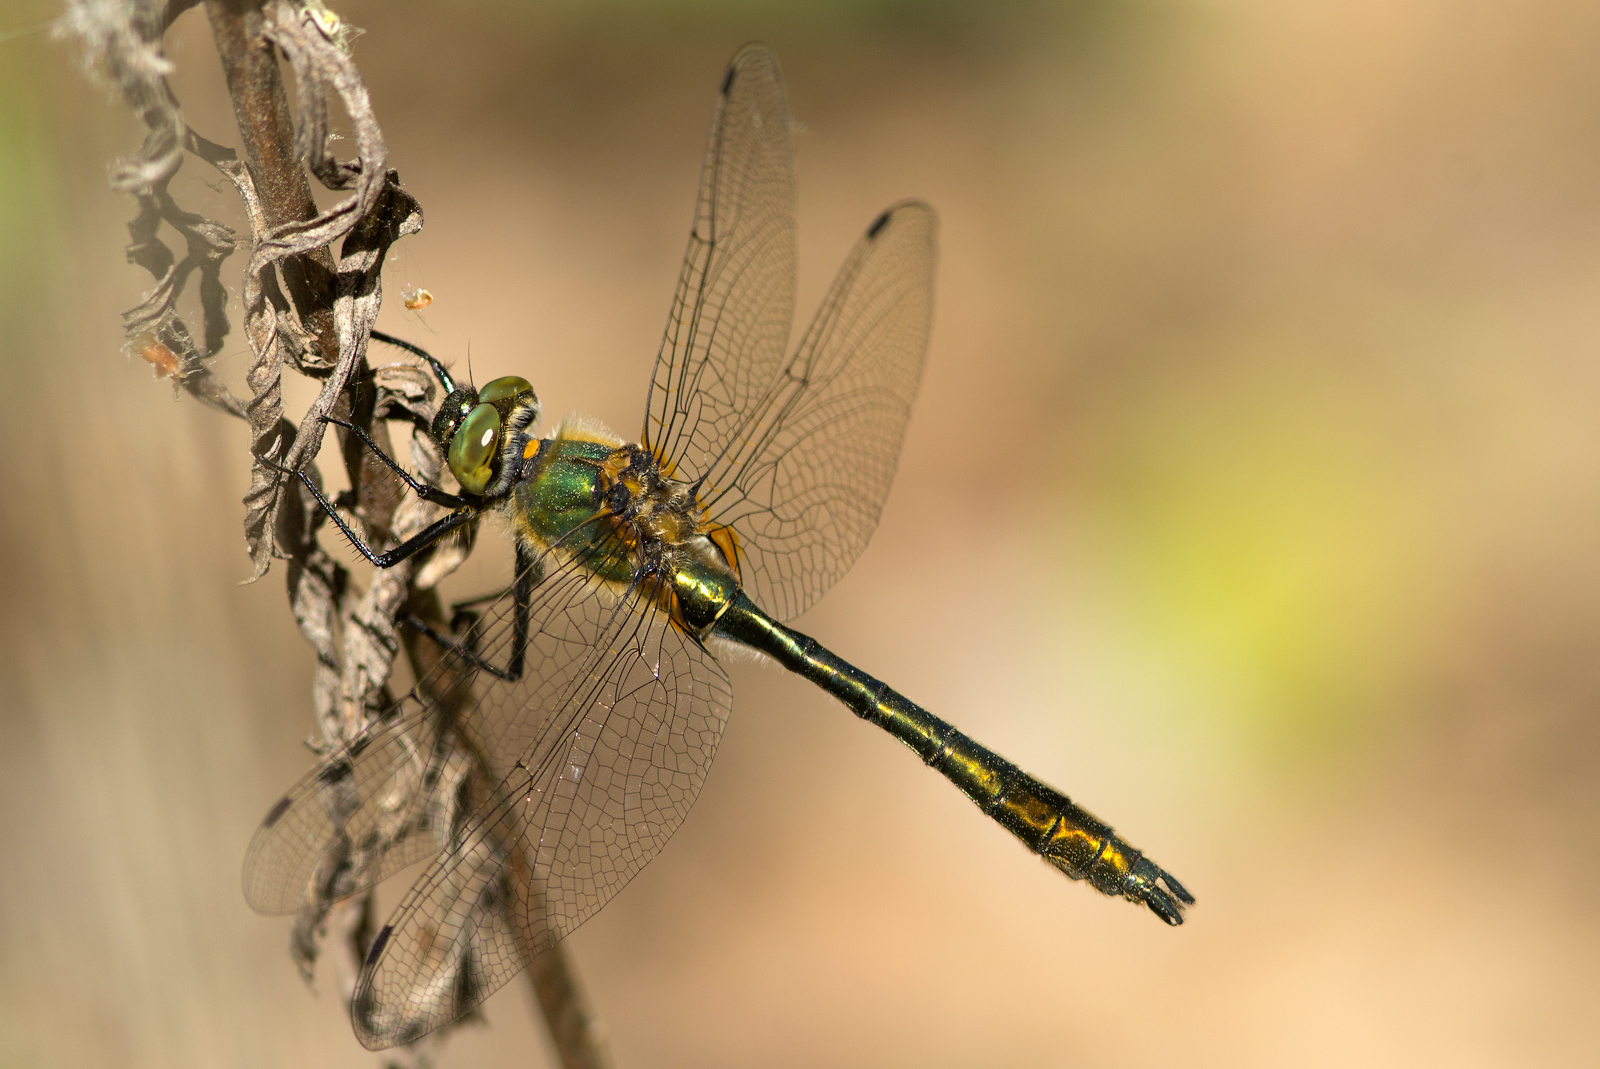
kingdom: Animalia
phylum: Arthropoda
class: Insecta
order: Odonata
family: Corduliidae
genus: Cordulia
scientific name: Cordulia aenea
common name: Downy emerald
